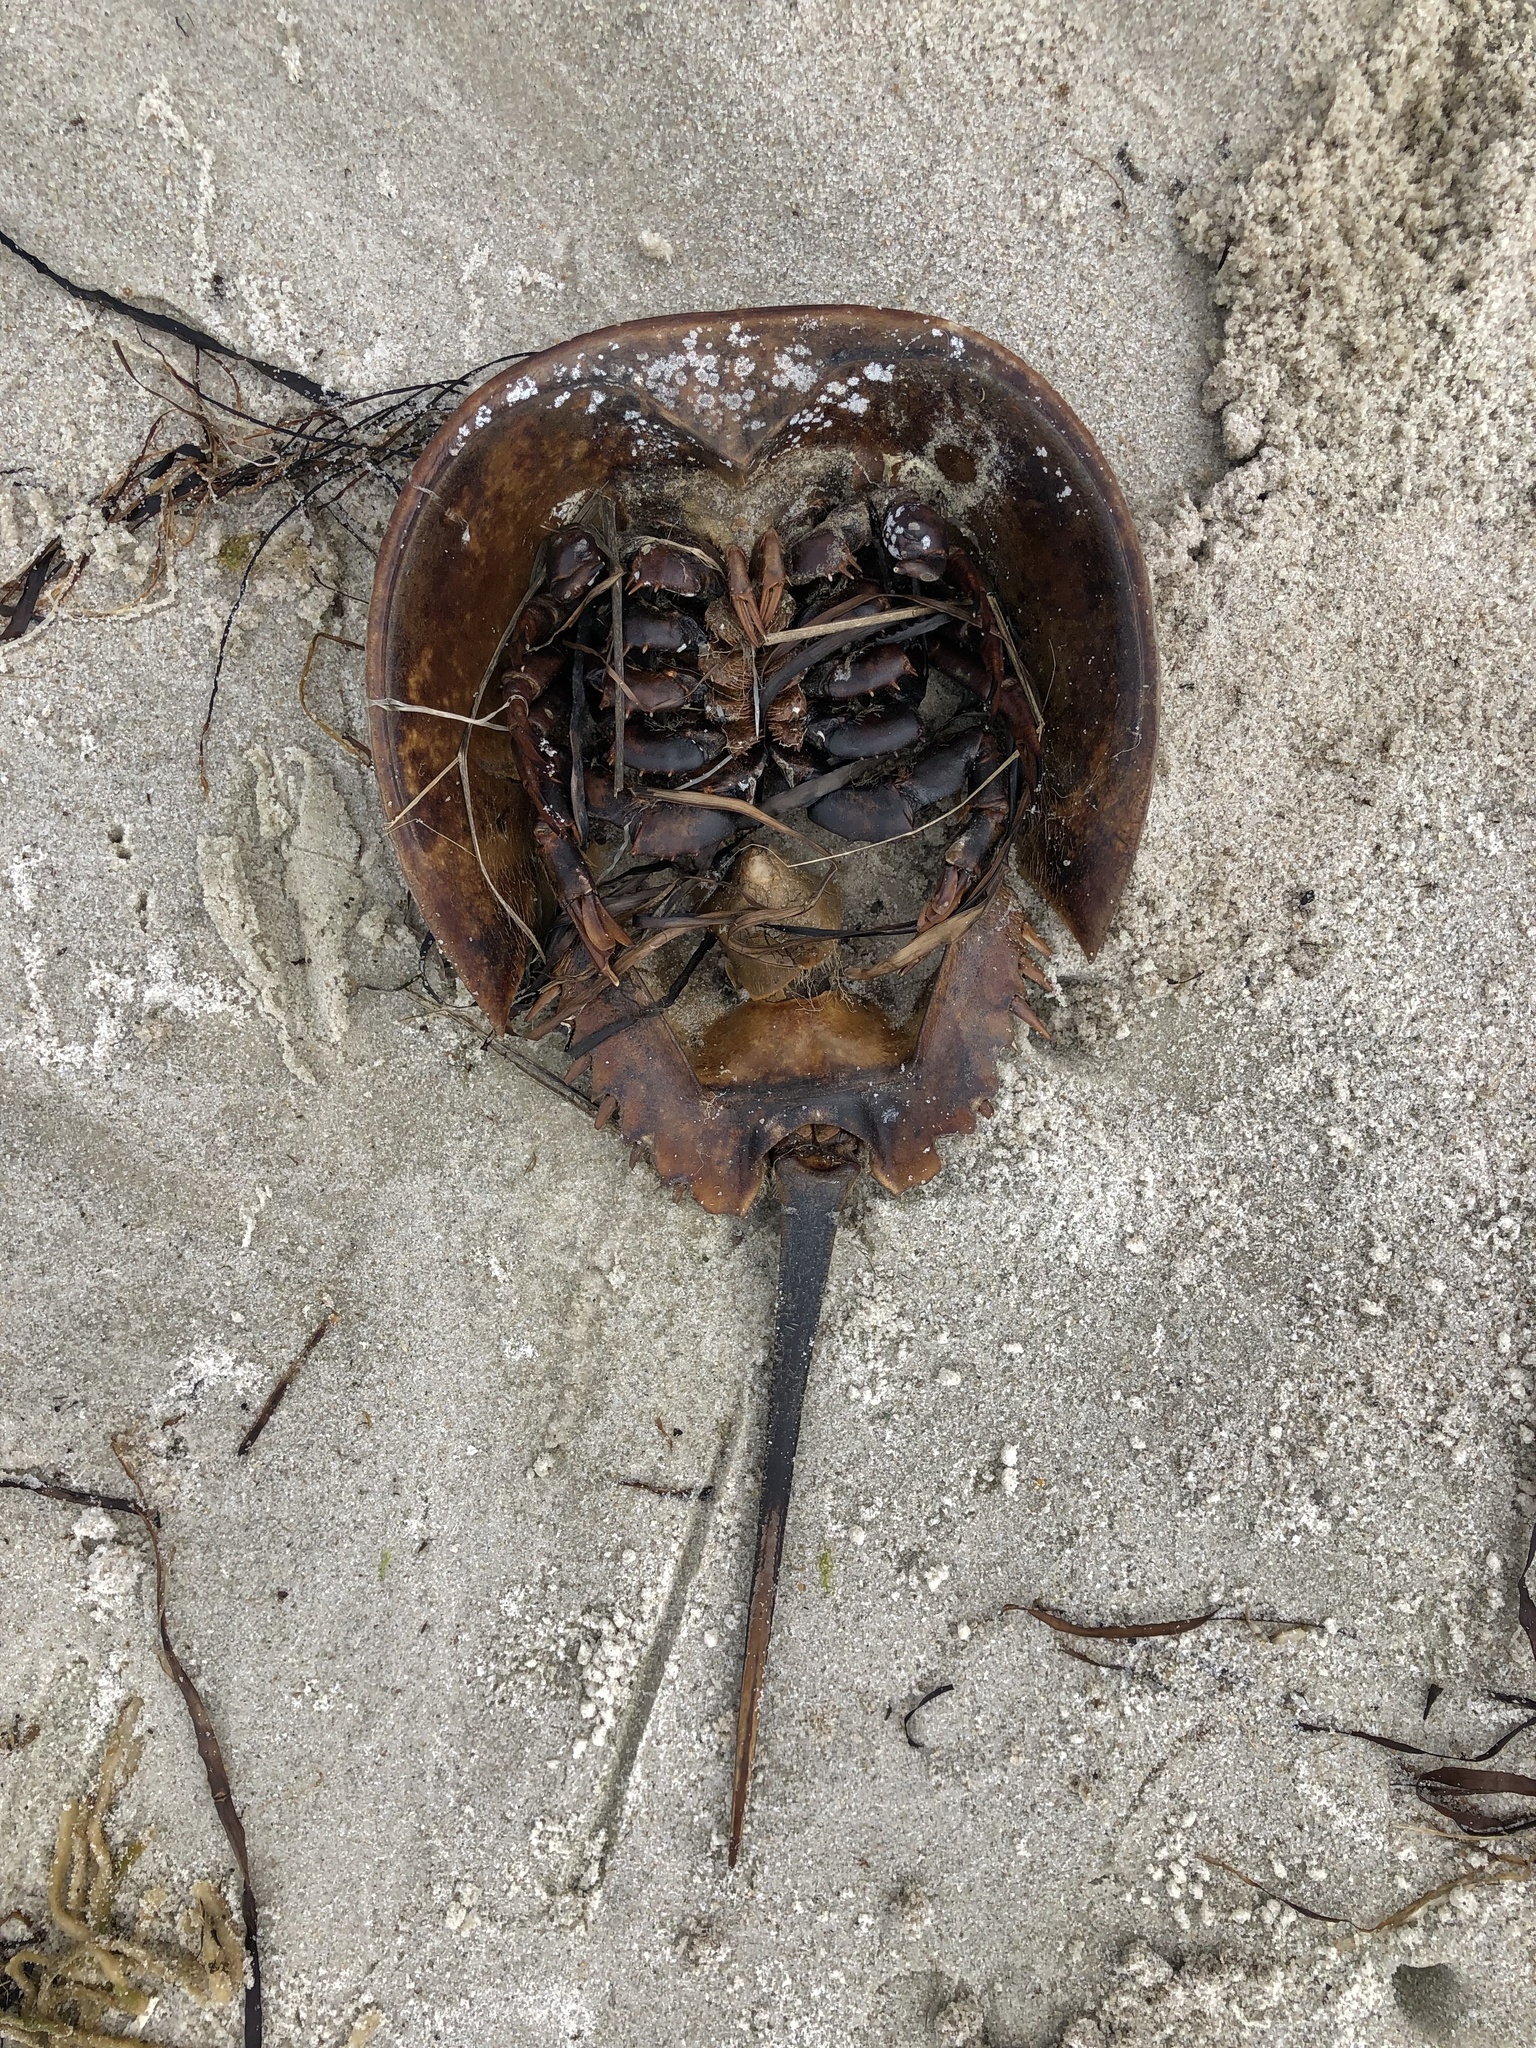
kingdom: Animalia
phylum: Arthropoda
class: Merostomata
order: Xiphosurida
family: Limulidae
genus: Limulus
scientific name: Limulus polyphemus
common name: Horseshoe crab
